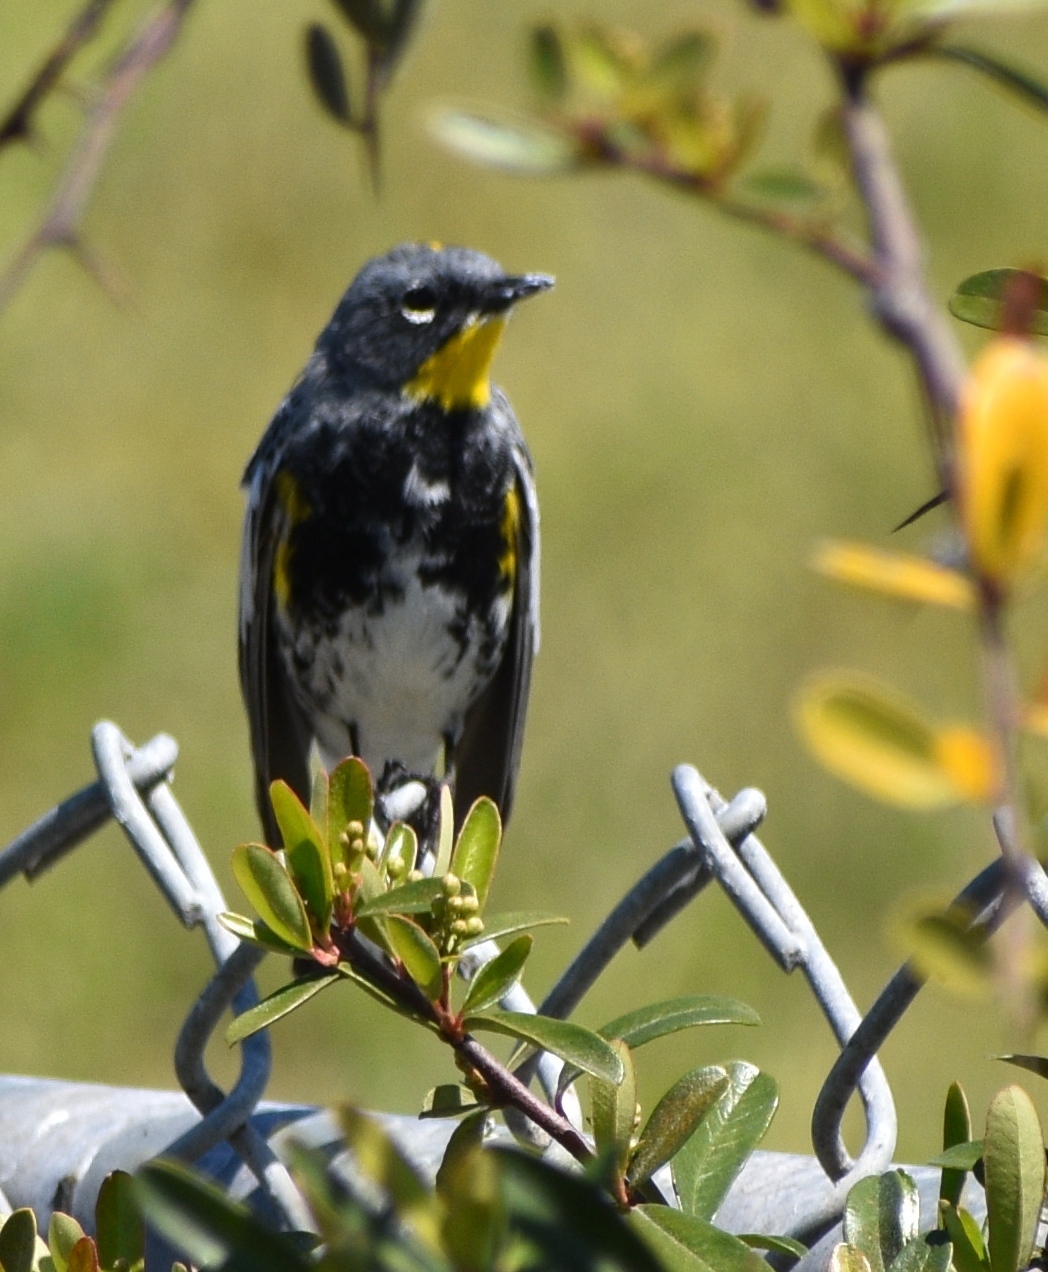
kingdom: Animalia
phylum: Chordata
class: Aves
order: Passeriformes
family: Parulidae
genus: Setophaga
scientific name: Setophaga coronata
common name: Myrtle warbler
